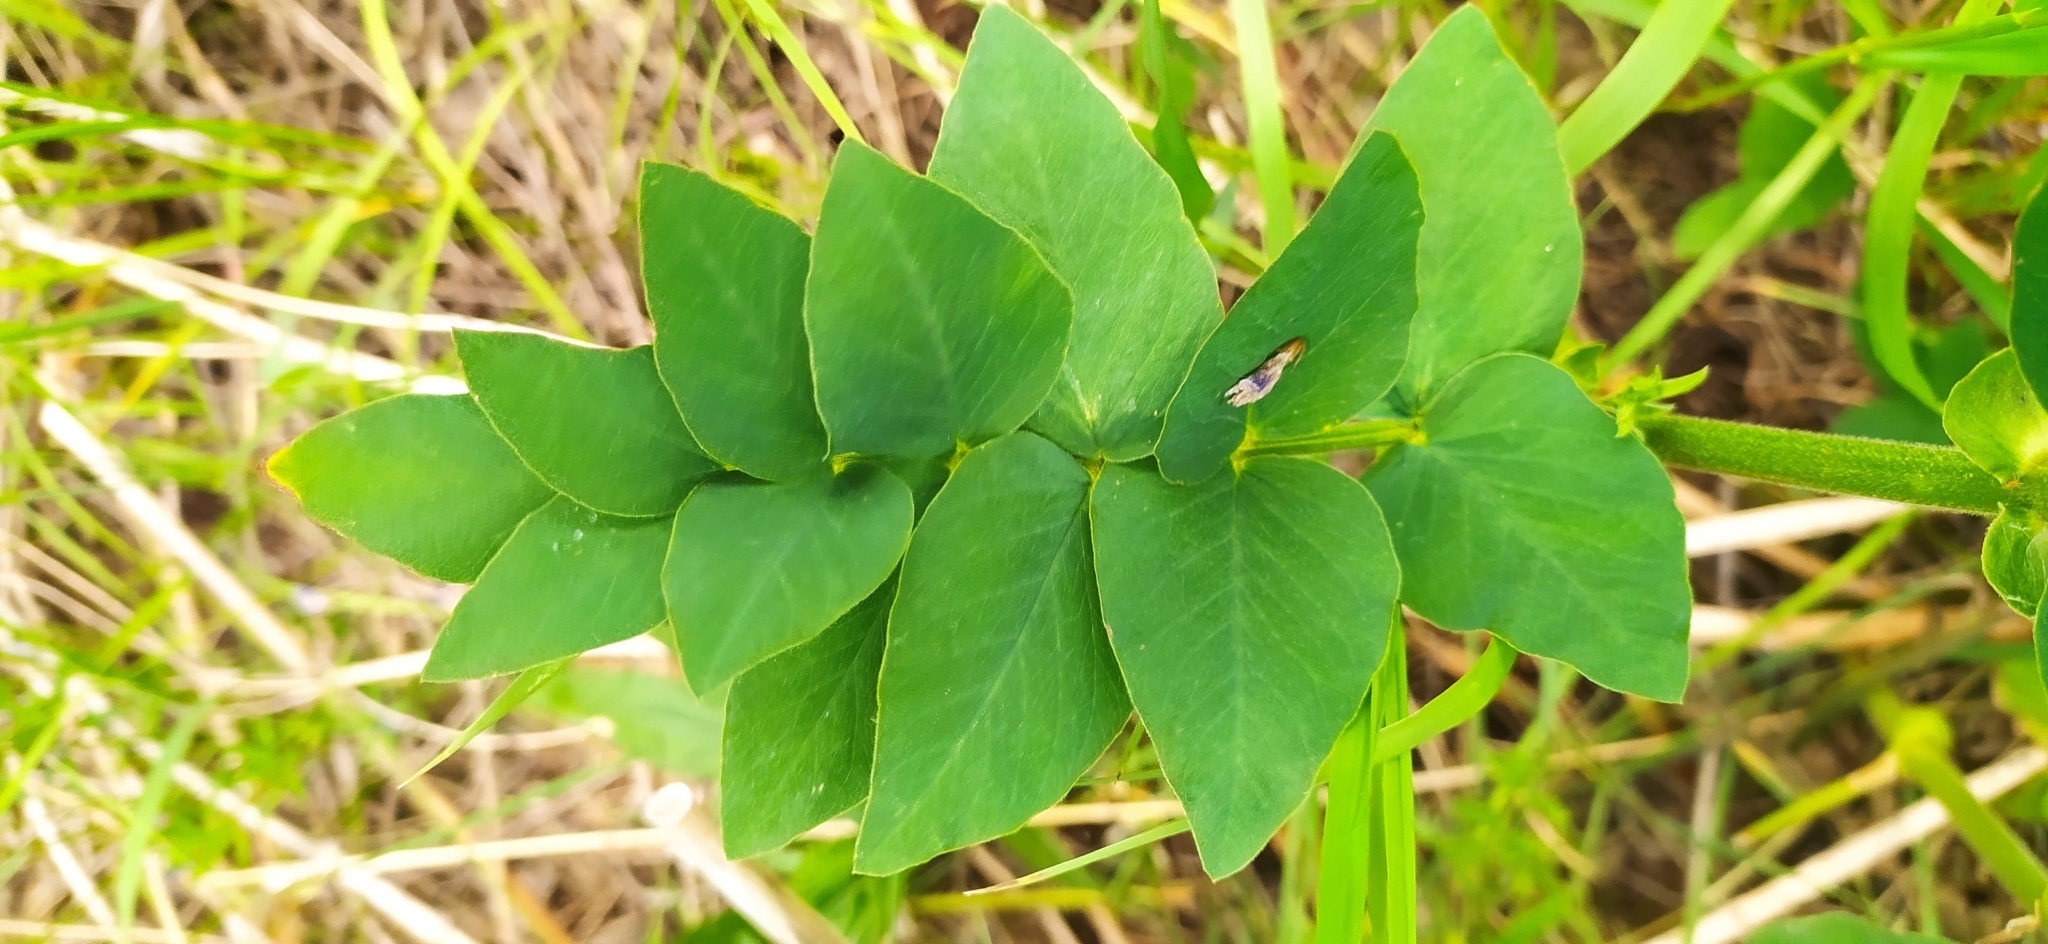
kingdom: Plantae
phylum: Tracheophyta
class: Magnoliopsida
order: Fabales
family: Fabaceae
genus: Galega
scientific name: Galega orientalis
